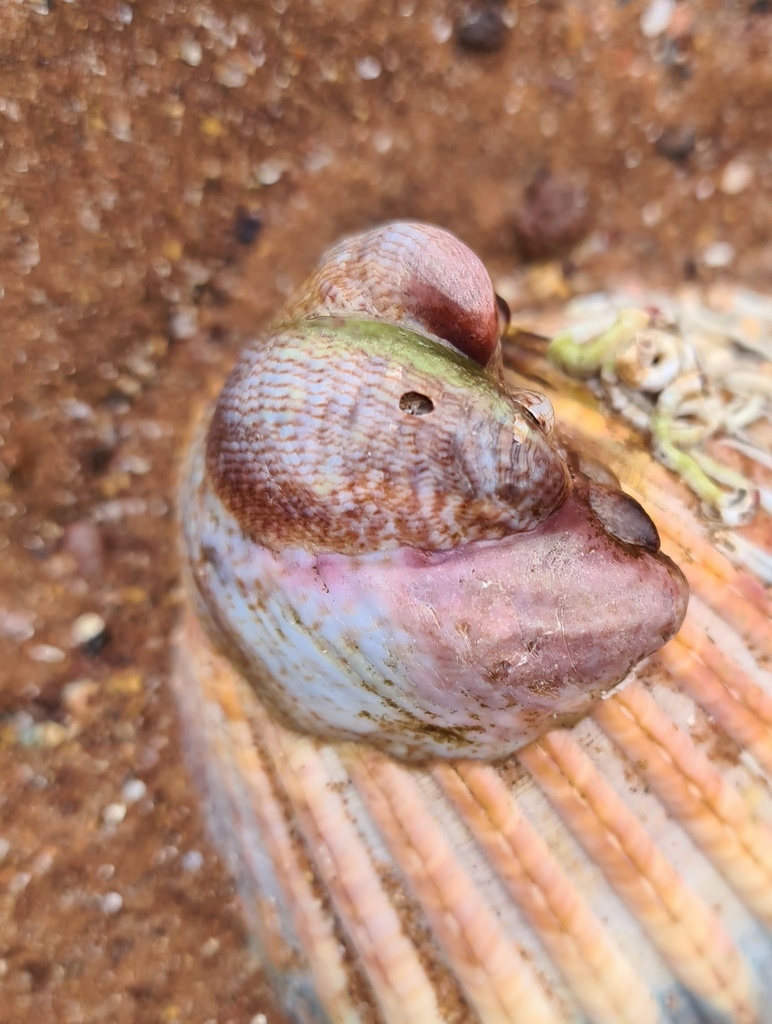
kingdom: Animalia
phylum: Mollusca
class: Gastropoda
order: Littorinimorpha
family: Calyptraeidae
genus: Crepidula
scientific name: Crepidula fornicata
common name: Slipper limpet
